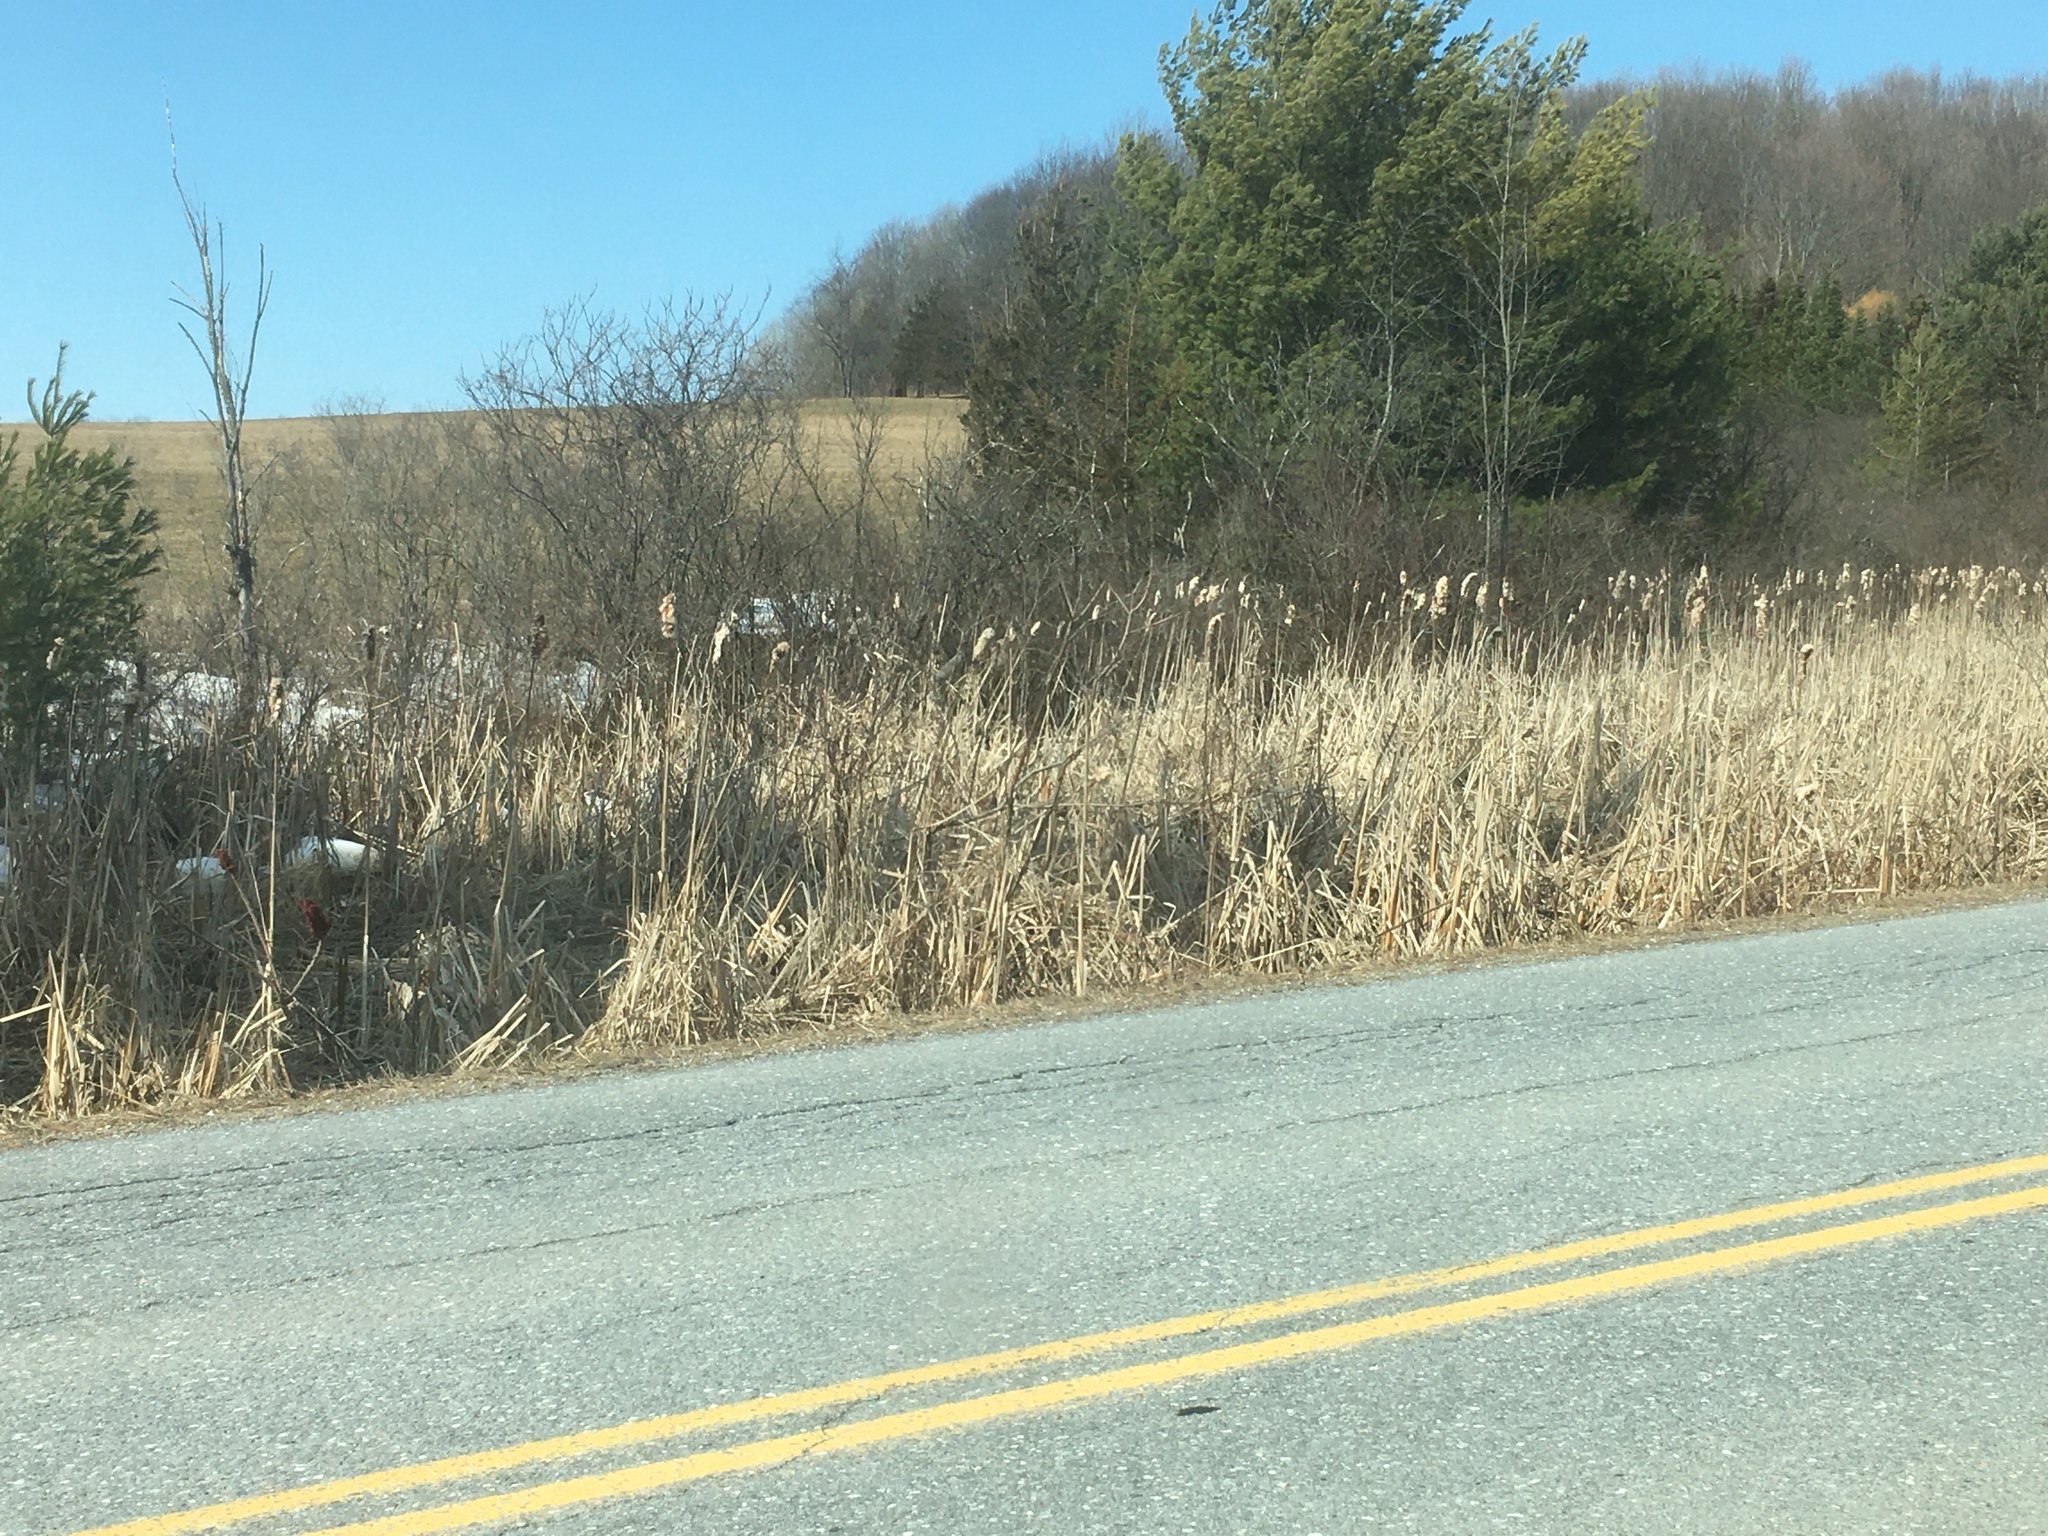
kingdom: Plantae
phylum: Tracheophyta
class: Liliopsida
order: Poales
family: Typhaceae
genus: Typha
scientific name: Typha latifolia
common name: Broadleaf cattail
